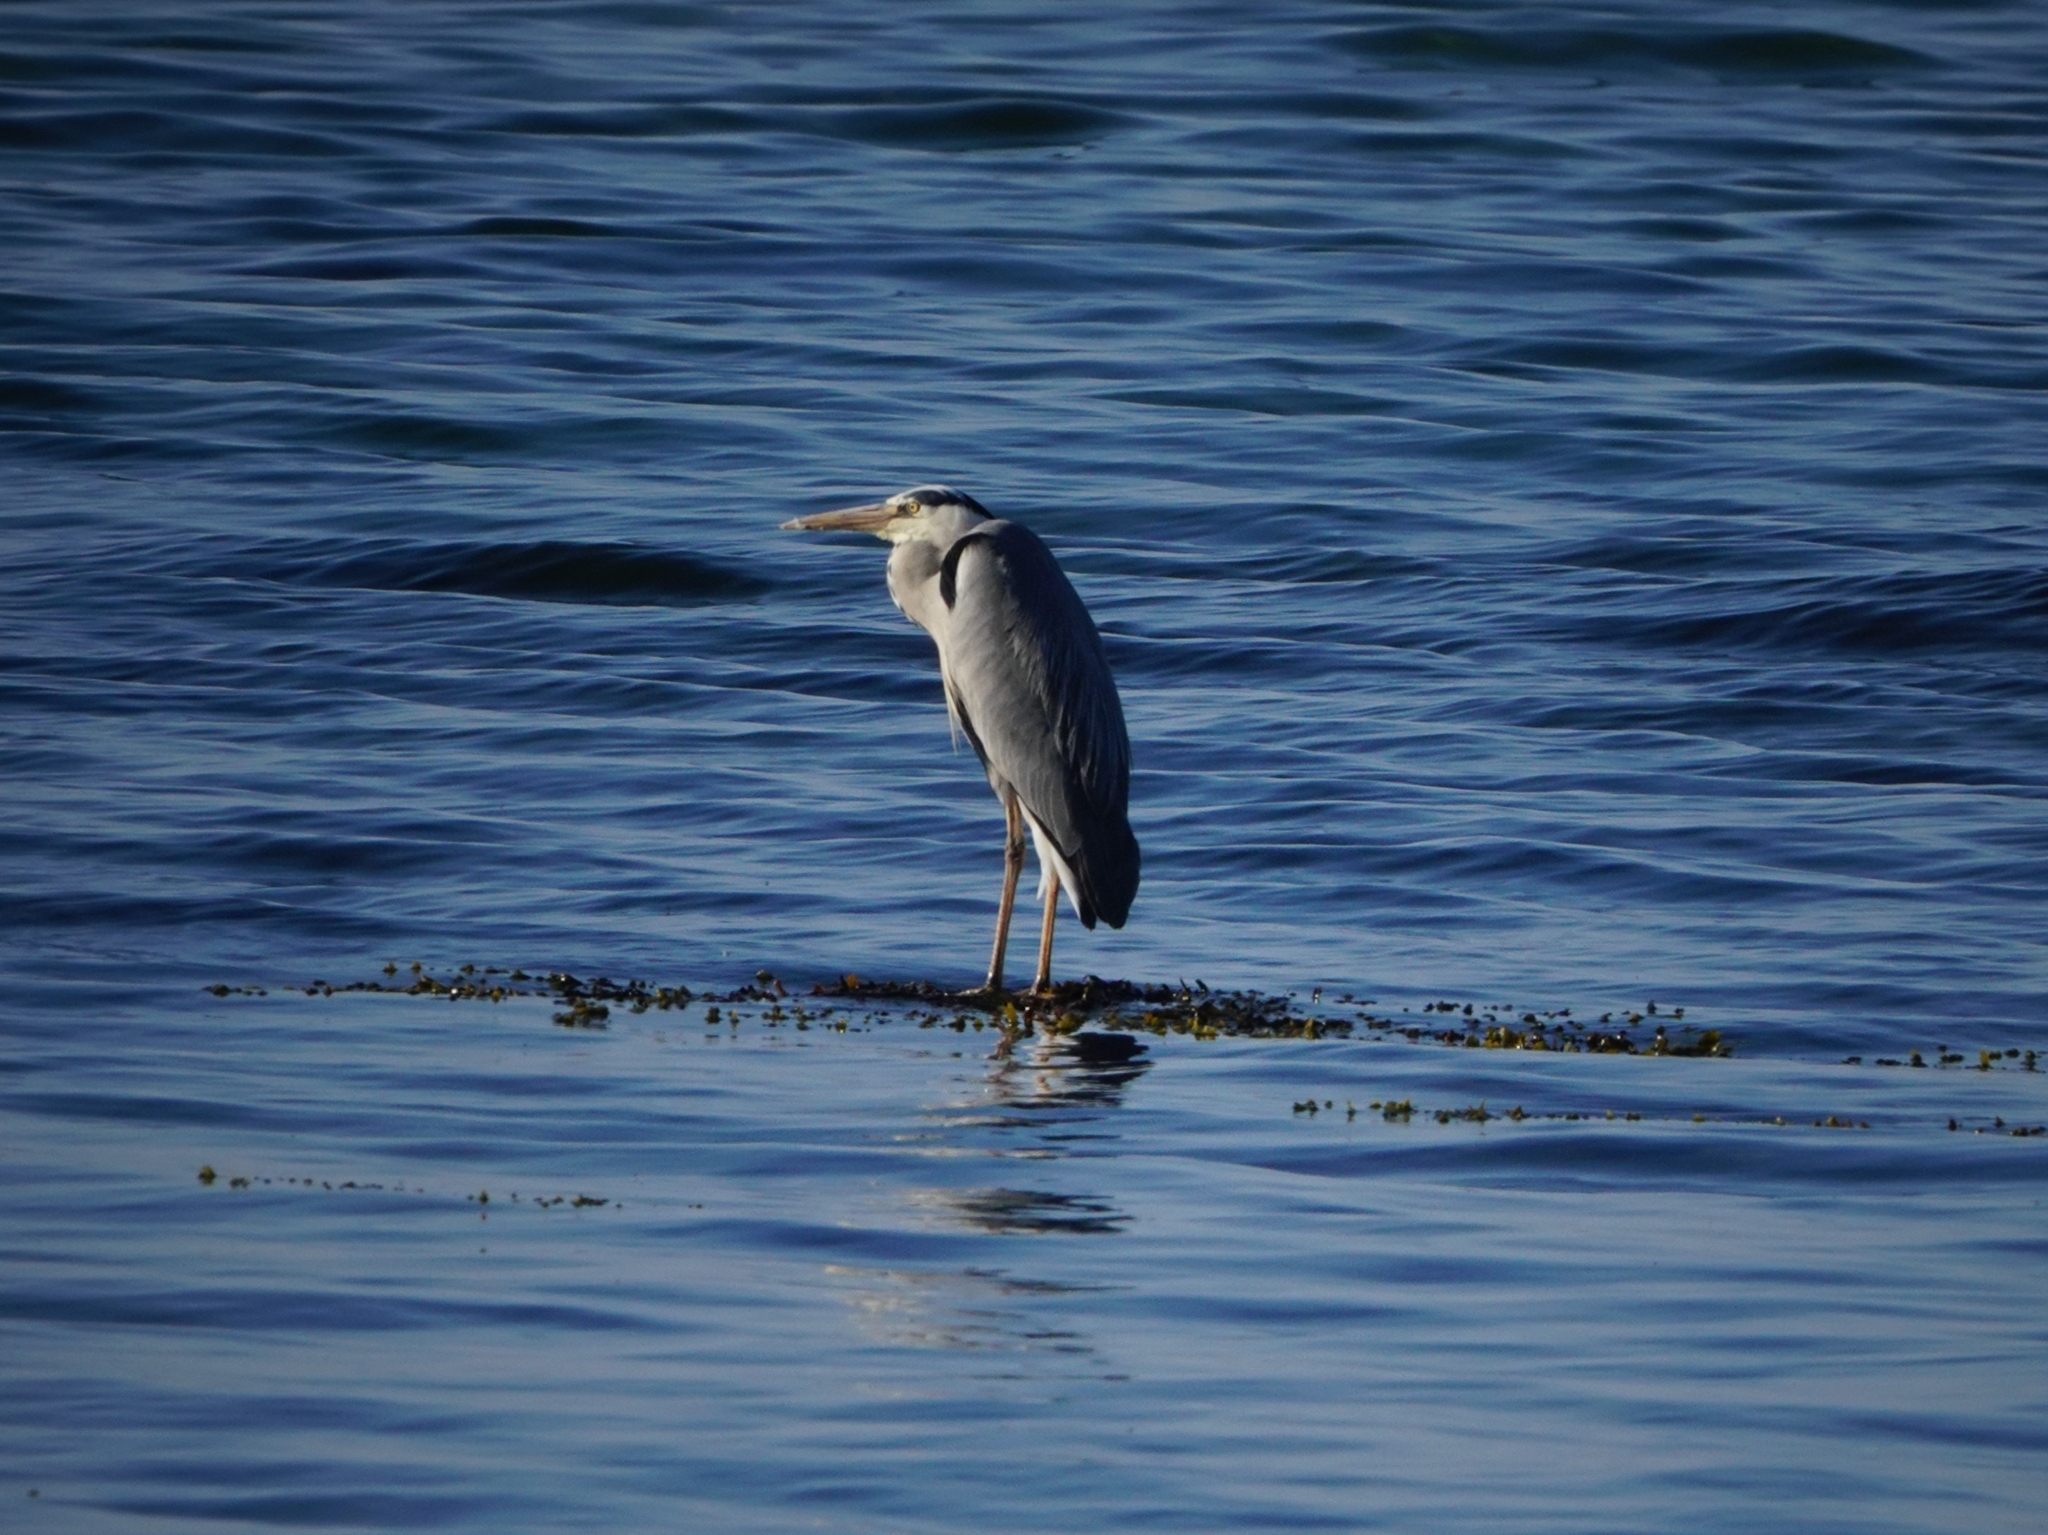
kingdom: Animalia
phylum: Chordata
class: Aves
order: Pelecaniformes
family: Ardeidae
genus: Ardea
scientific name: Ardea cinerea
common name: Grey heron
